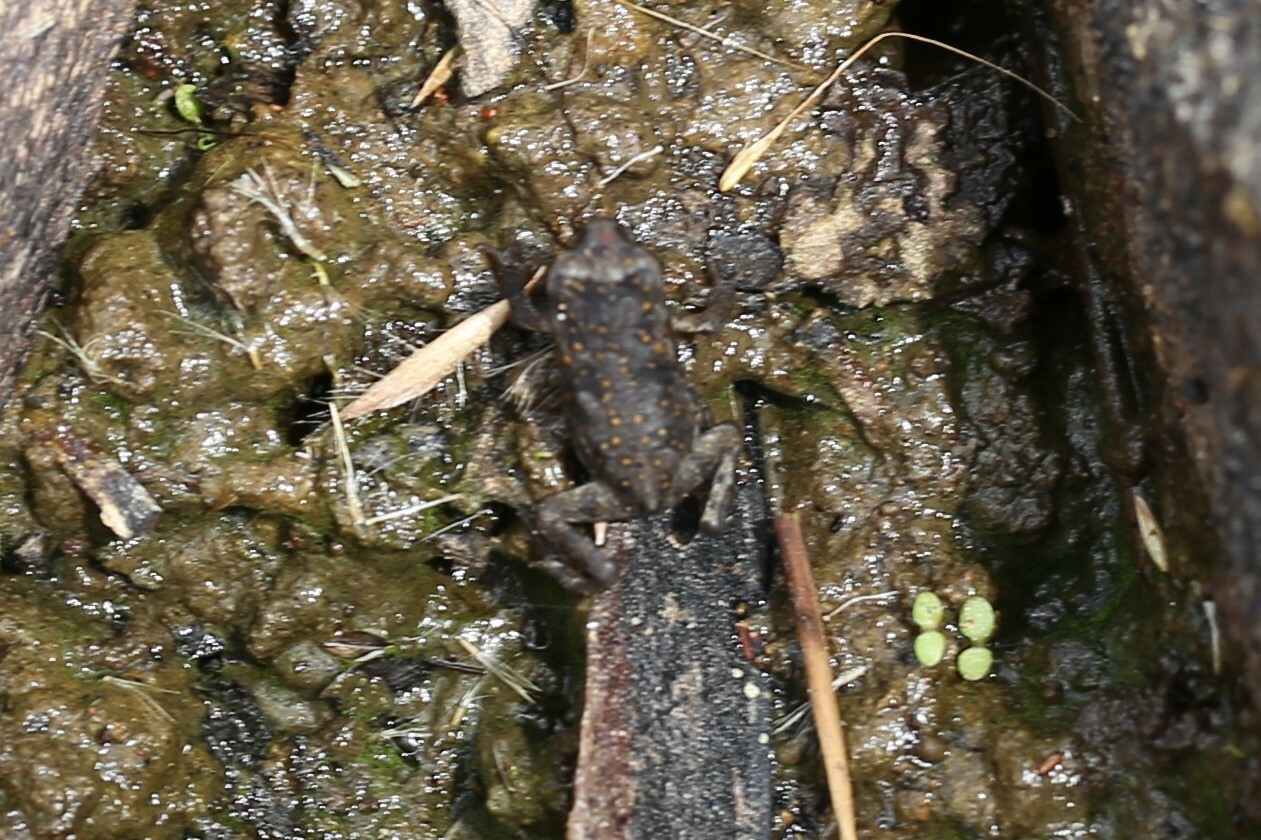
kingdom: Animalia
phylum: Chordata
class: Amphibia
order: Anura
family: Bufonidae
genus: Rhinella
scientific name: Rhinella marina
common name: Cane toad
